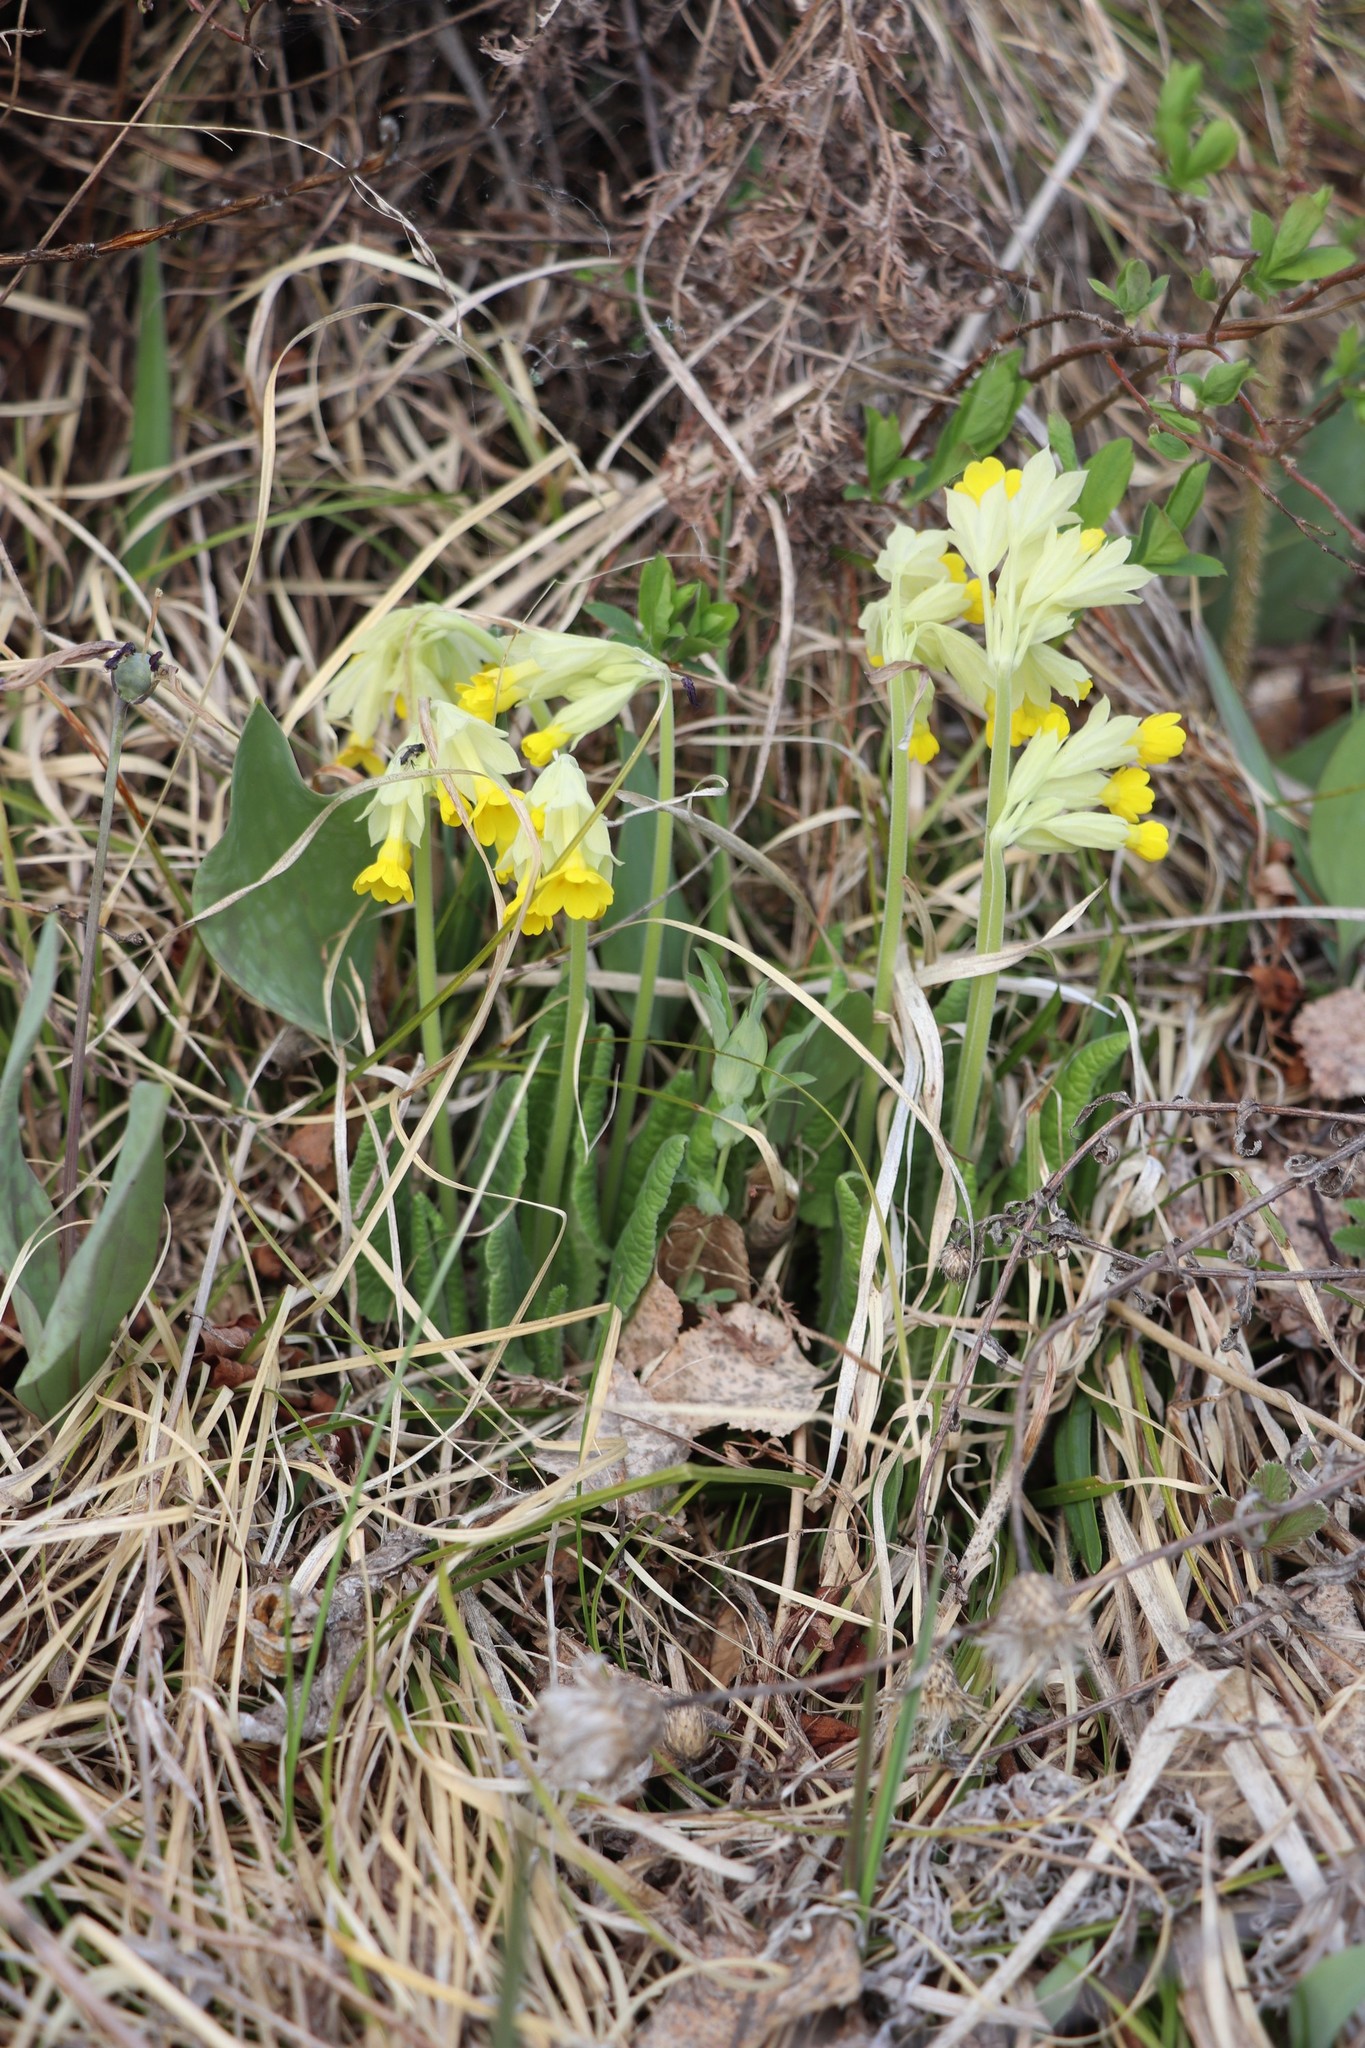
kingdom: Plantae
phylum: Tracheophyta
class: Magnoliopsida
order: Ericales
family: Primulaceae
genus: Primula
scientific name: Primula veris
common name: Cowslip
